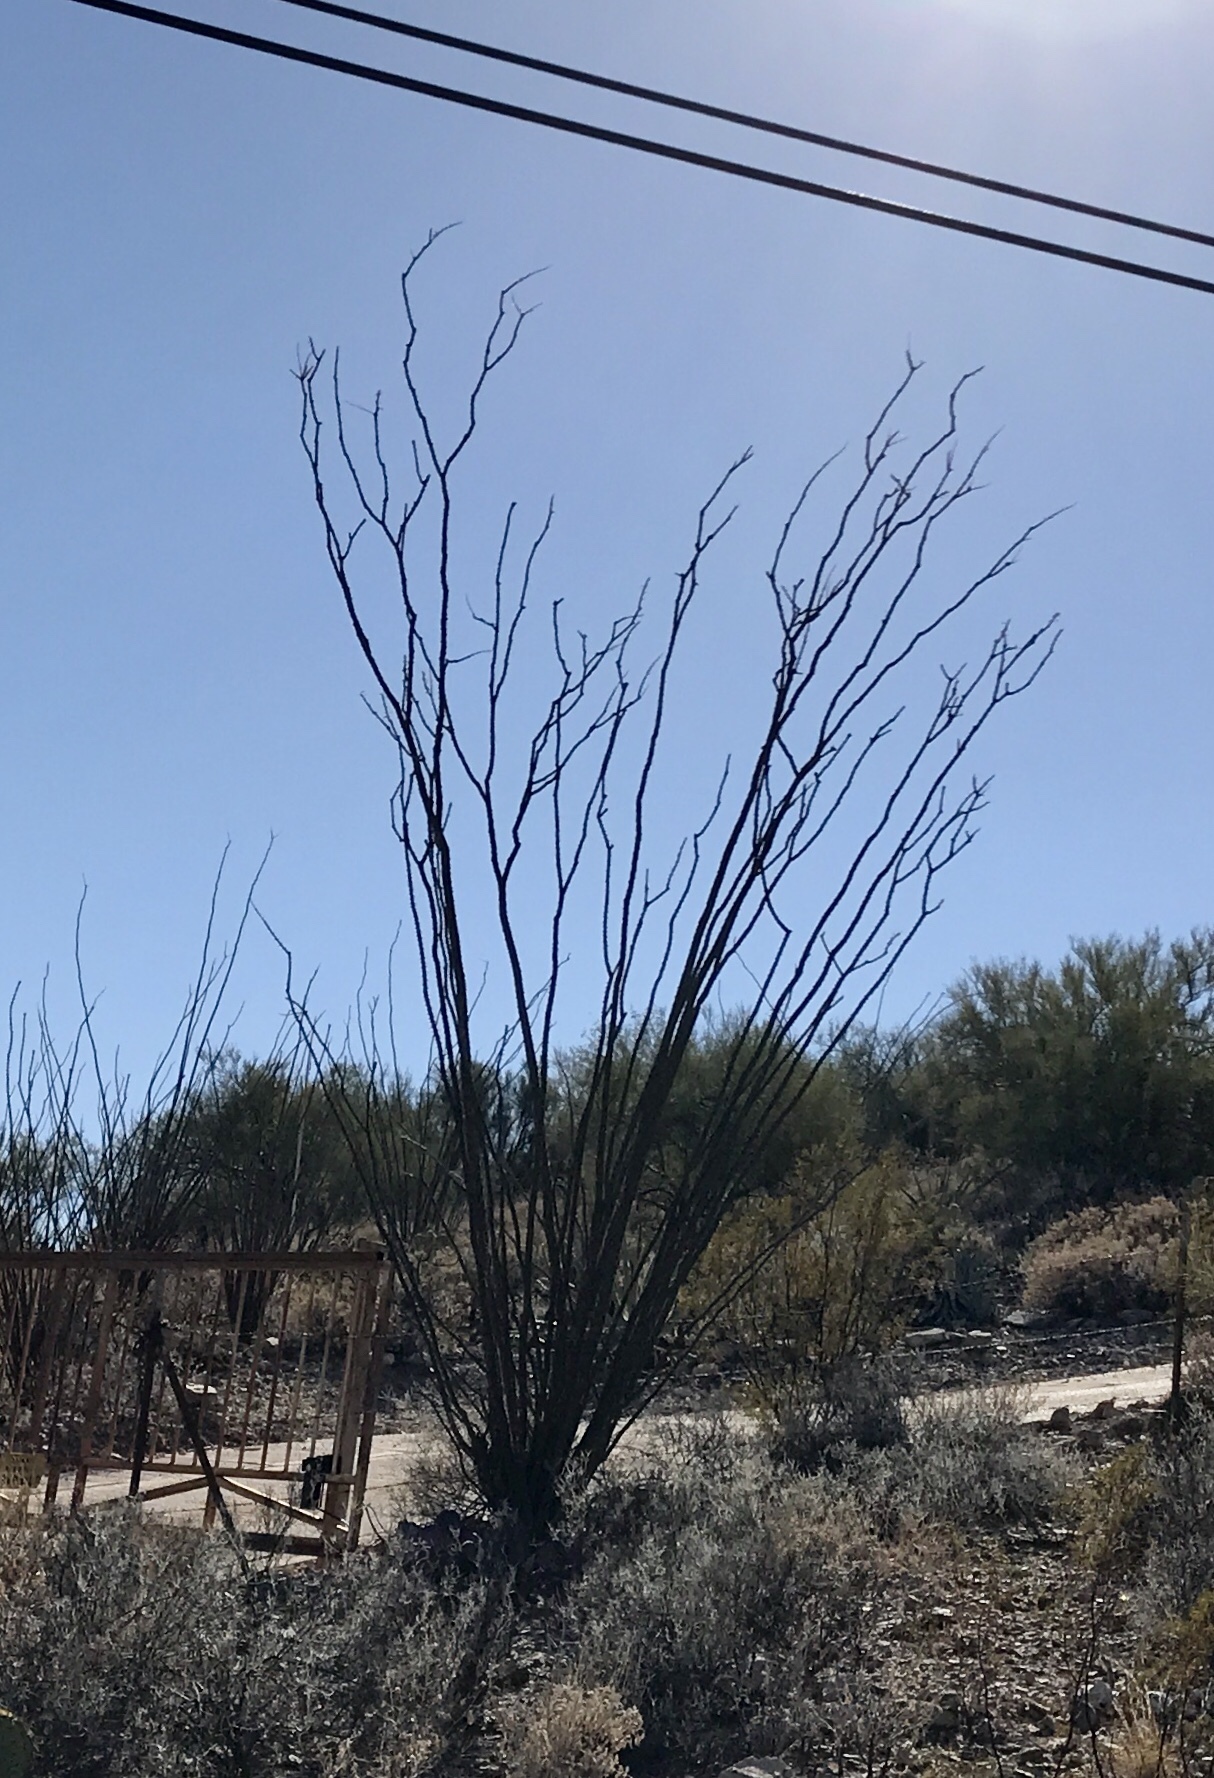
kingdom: Plantae
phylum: Tracheophyta
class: Magnoliopsida
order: Ericales
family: Fouquieriaceae
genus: Fouquieria
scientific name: Fouquieria splendens
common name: Vine-cactus
